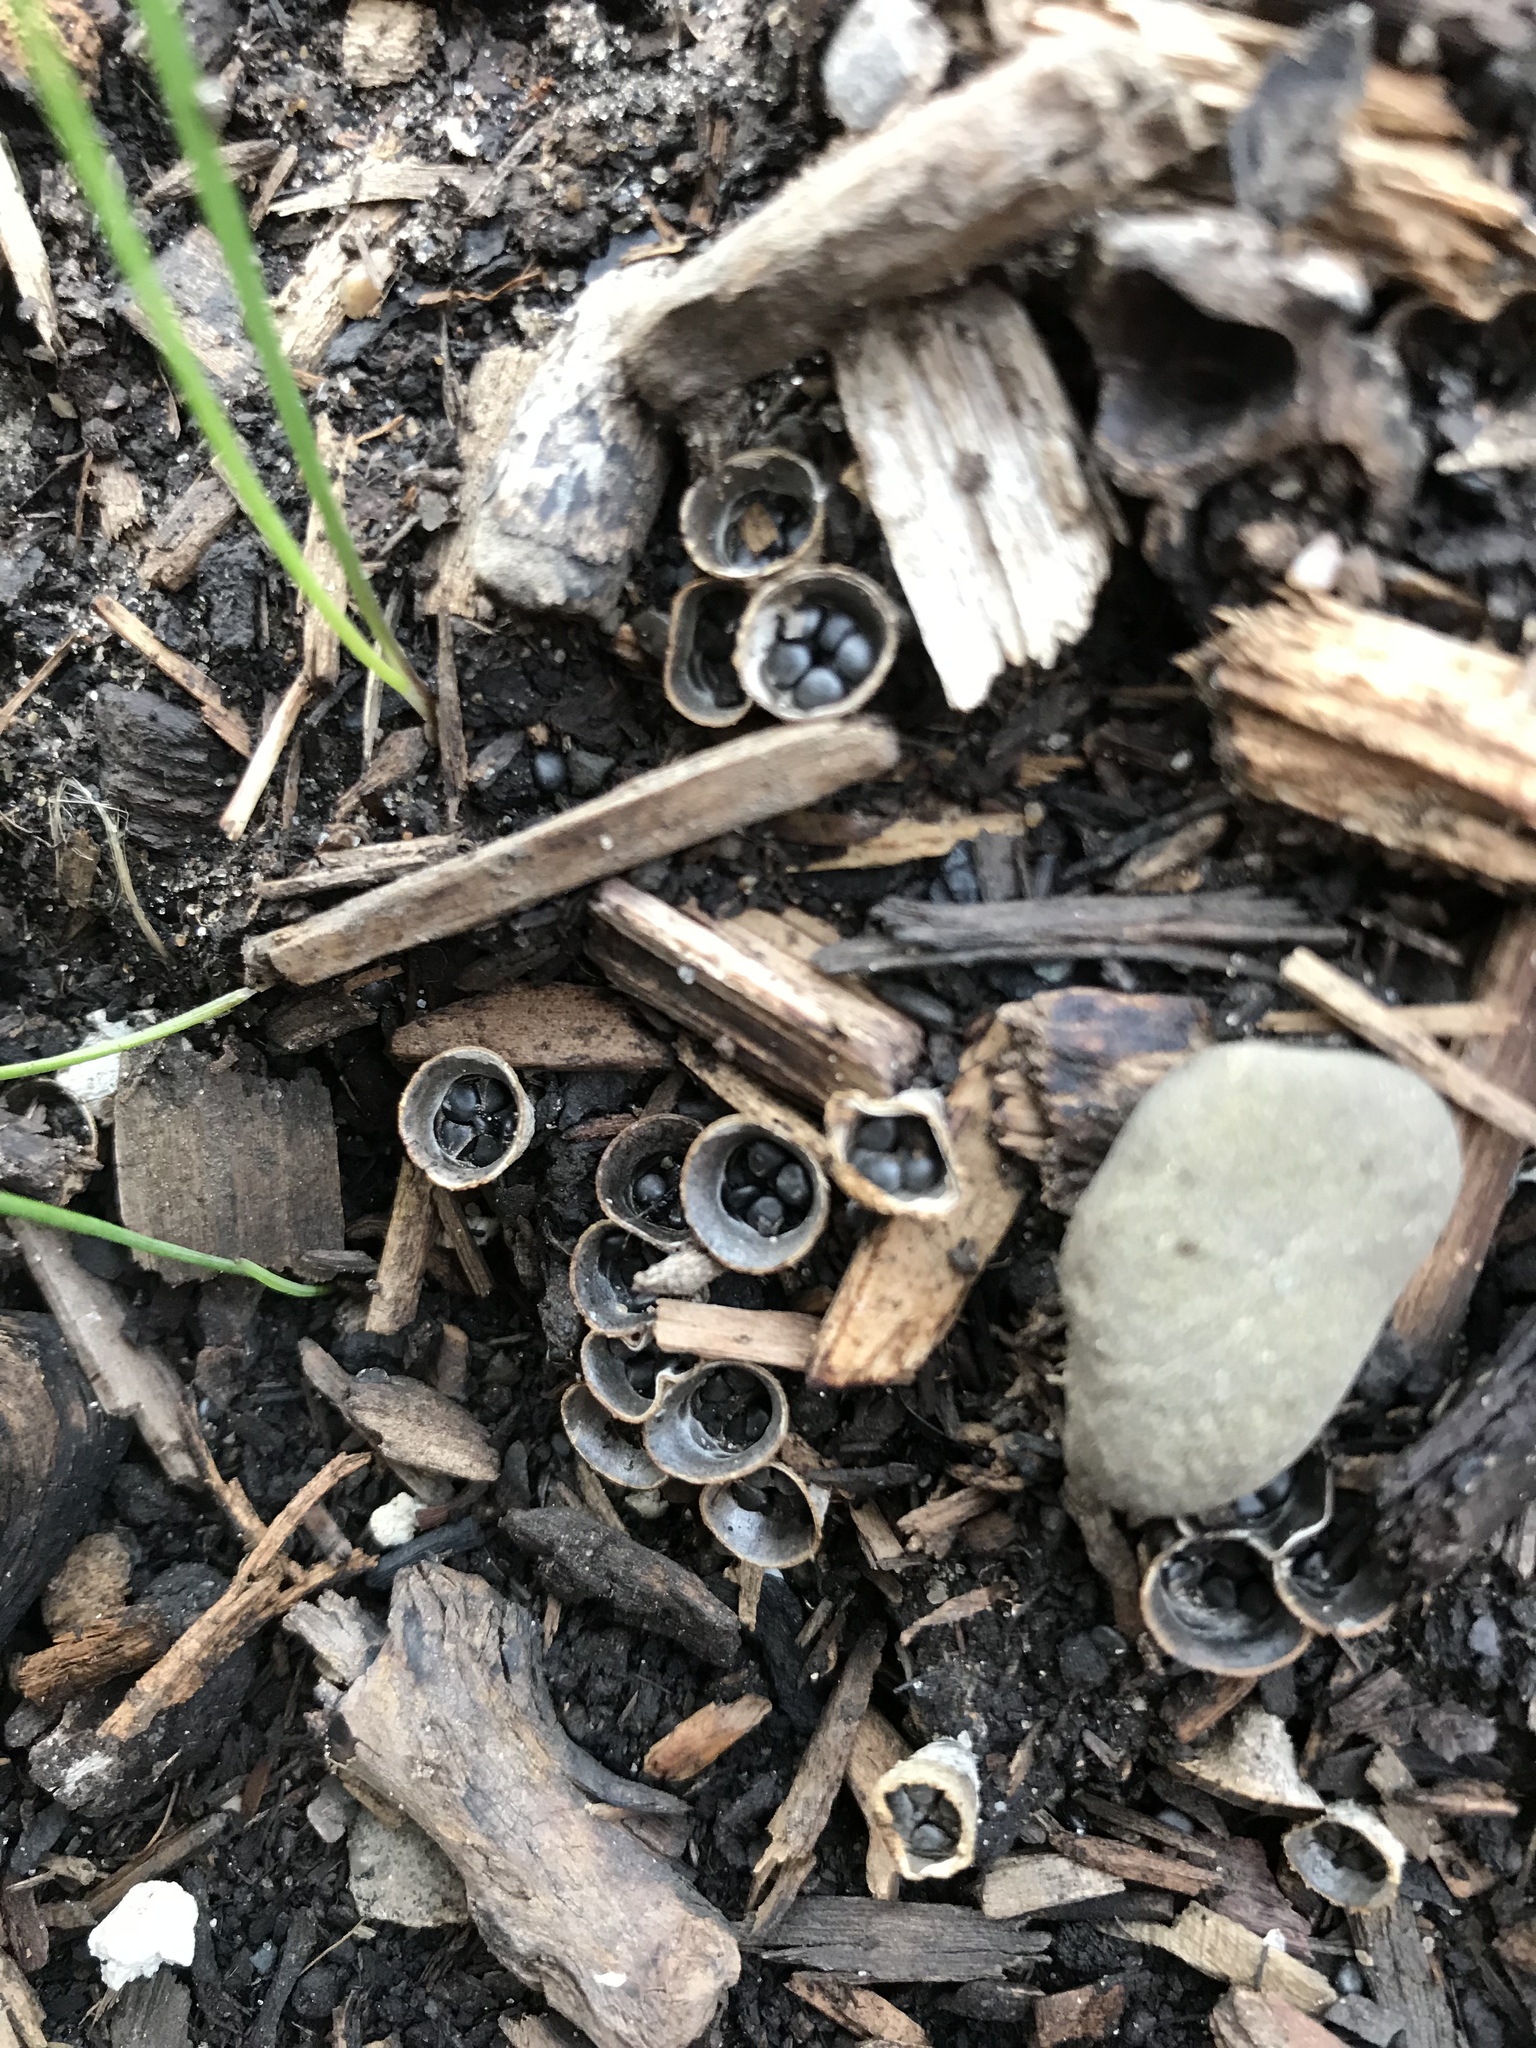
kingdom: Fungi
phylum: Basidiomycota
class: Agaricomycetes
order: Agaricales
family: Agaricaceae
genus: Cyathus
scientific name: Cyathus stercoreus
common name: Dung bird's nest
